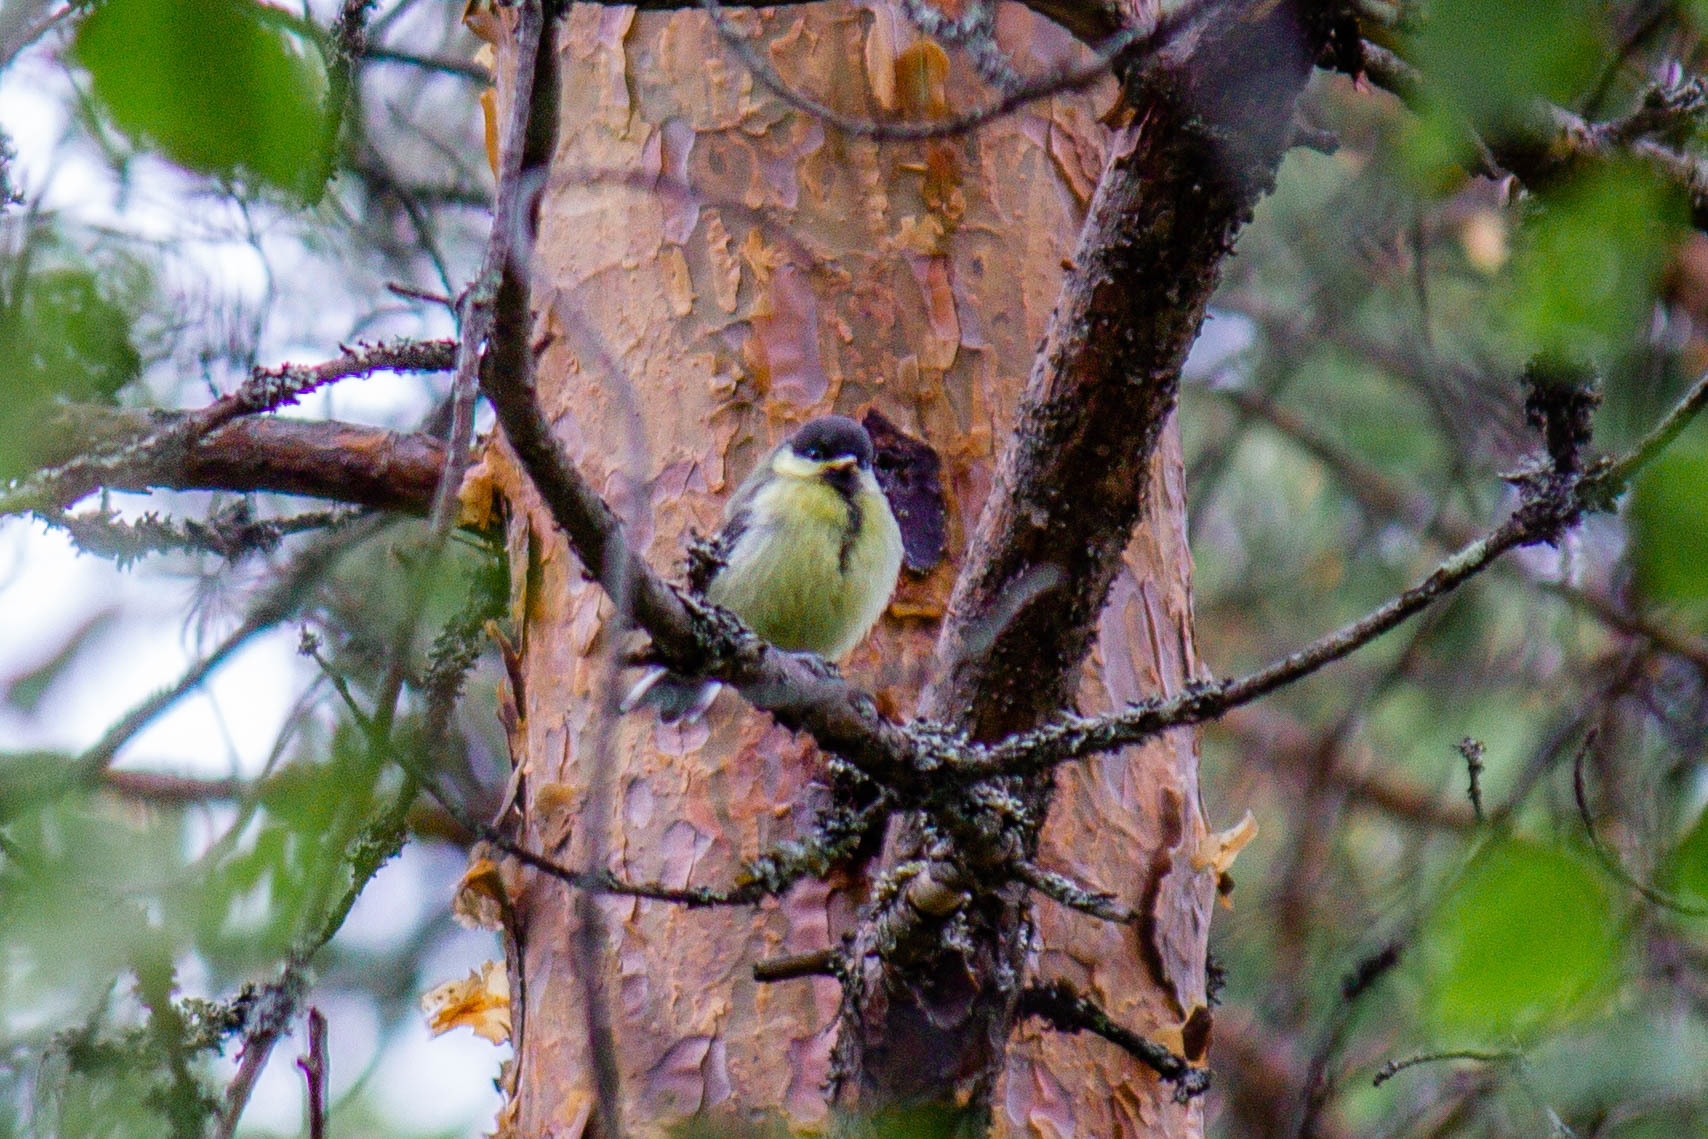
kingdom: Animalia
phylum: Chordata
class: Aves
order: Passeriformes
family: Paridae
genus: Parus
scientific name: Parus major
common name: Great tit
